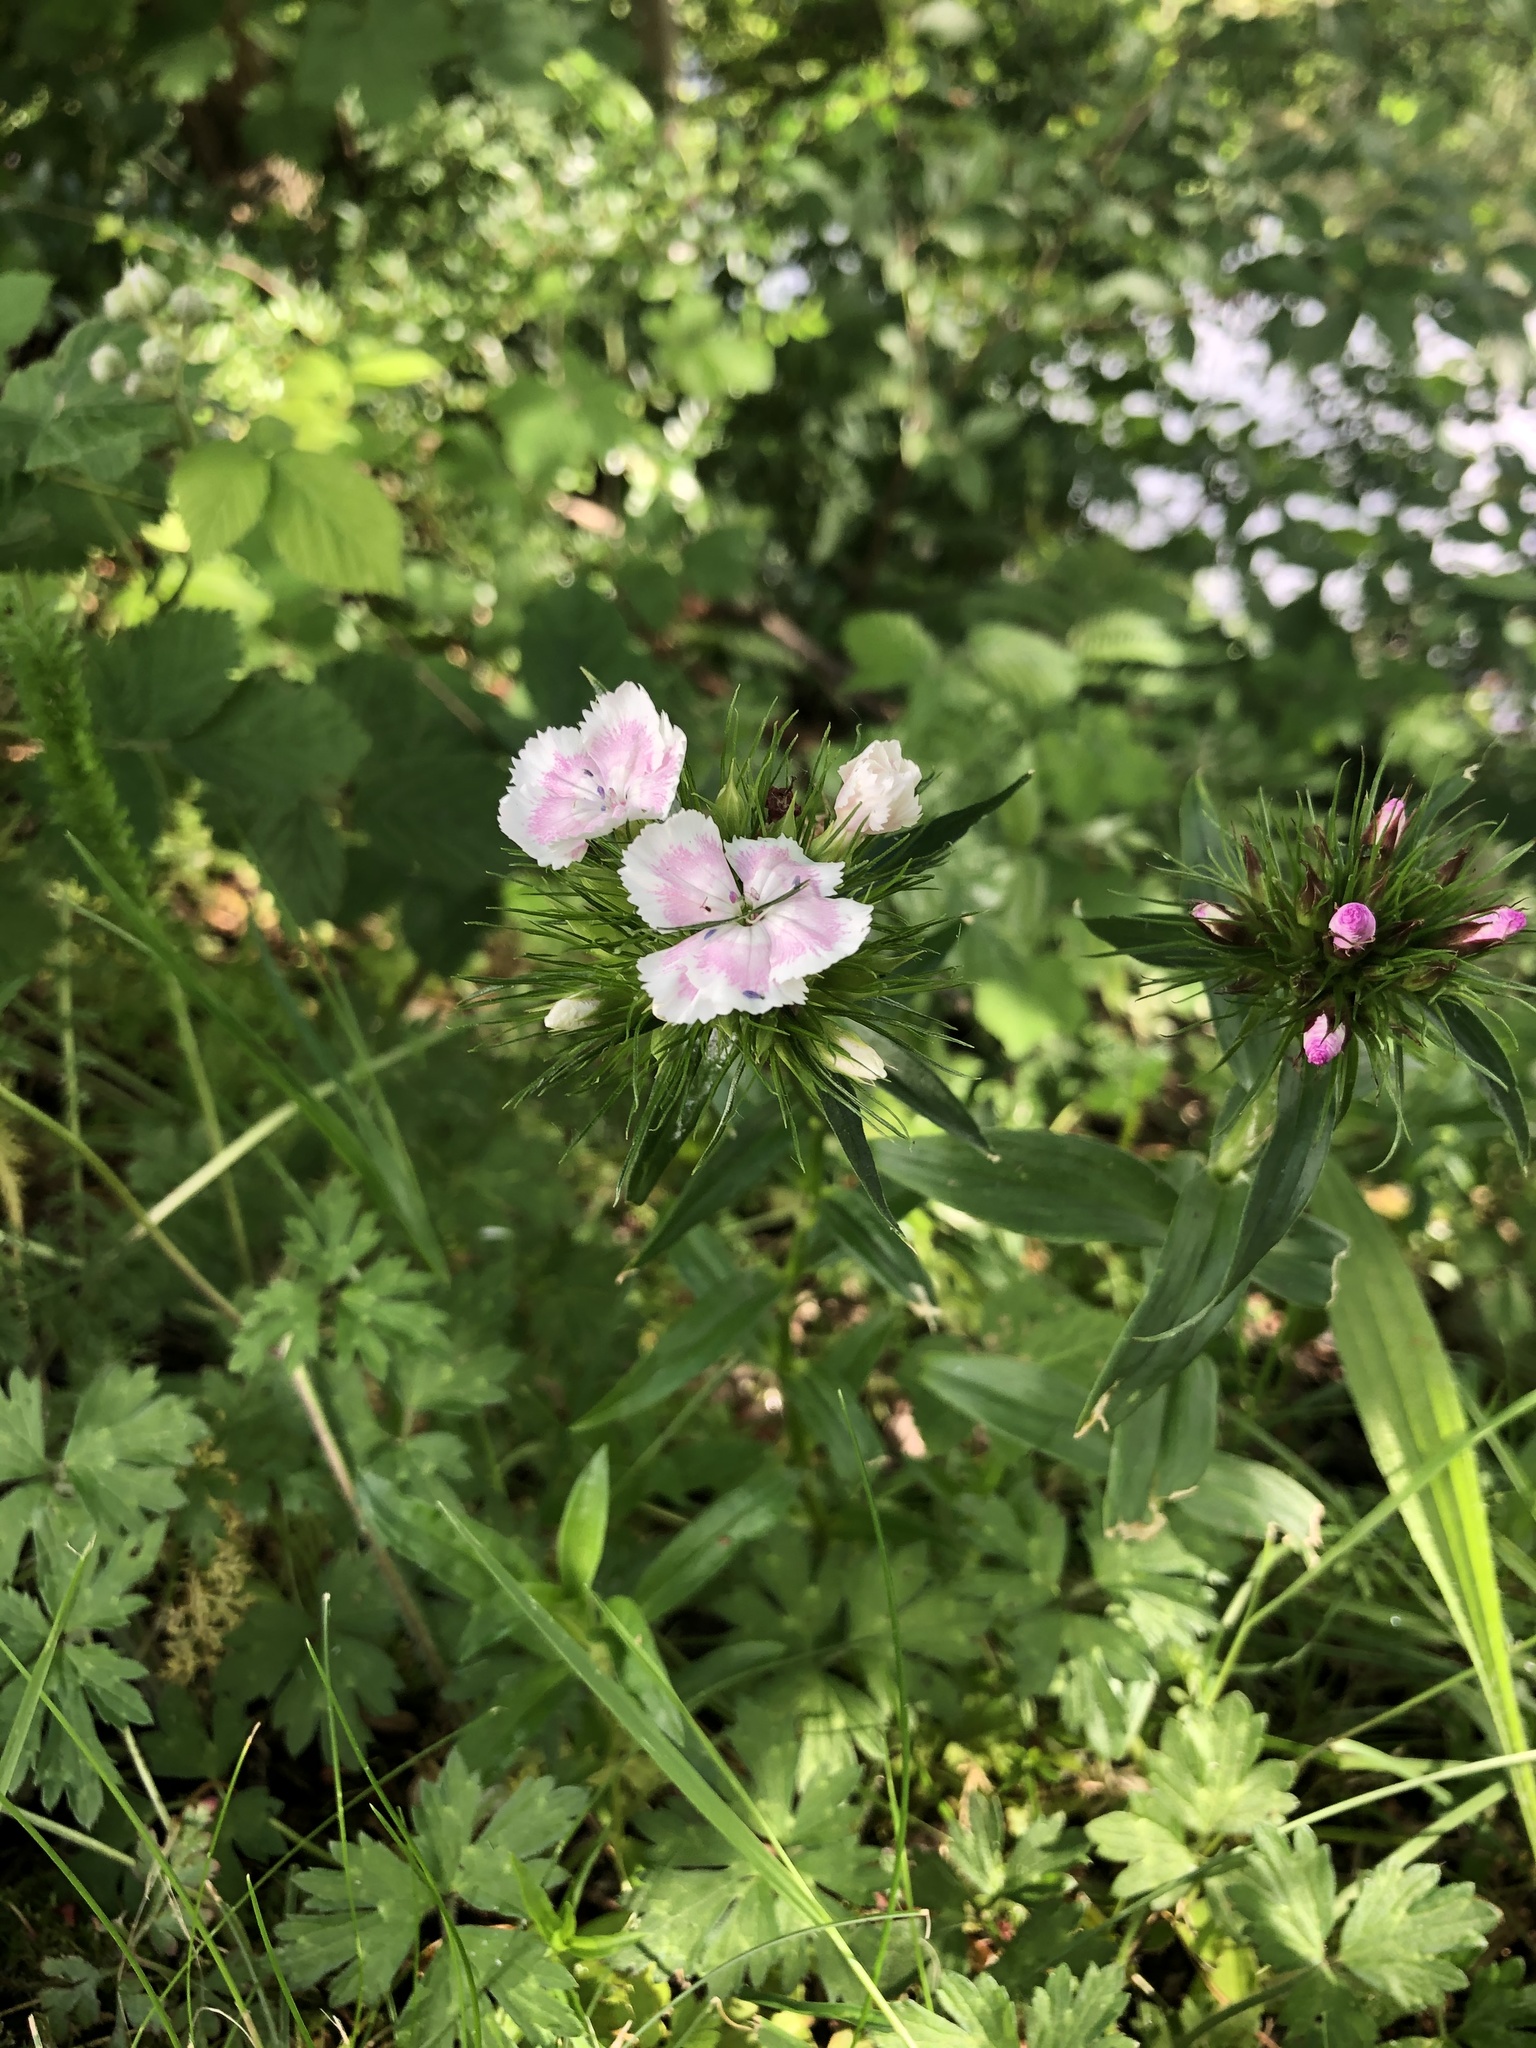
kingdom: Plantae
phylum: Tracheophyta
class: Magnoliopsida
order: Caryophyllales
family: Caryophyllaceae
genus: Dianthus
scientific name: Dianthus barbatus
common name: Sweet-william
